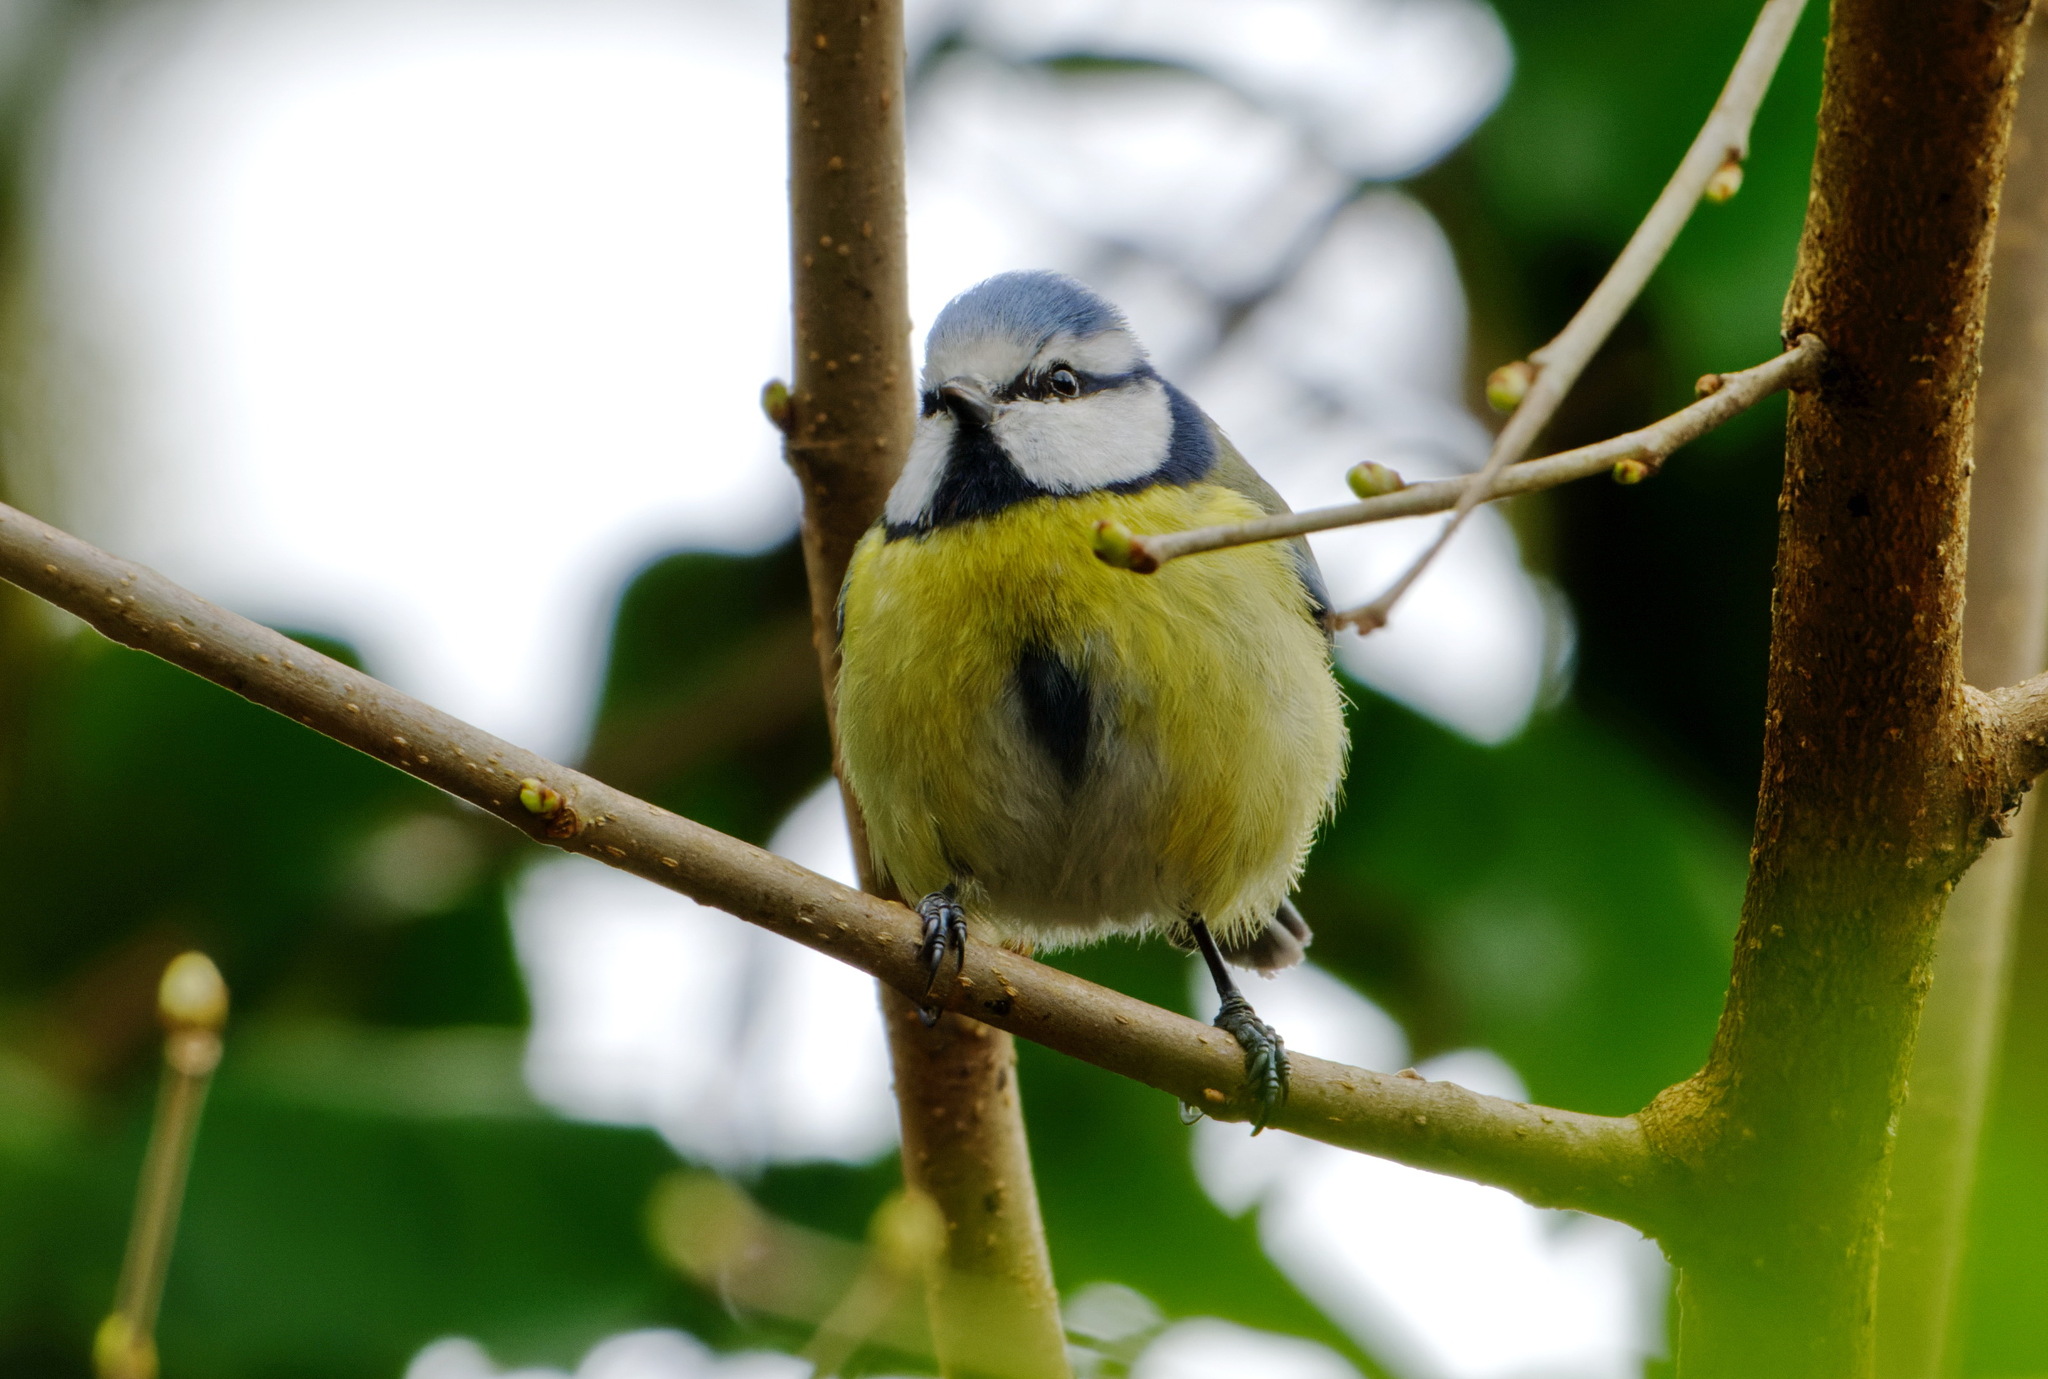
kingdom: Animalia
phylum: Chordata
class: Aves
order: Passeriformes
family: Paridae
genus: Cyanistes
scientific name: Cyanistes caeruleus
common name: Eurasian blue tit
